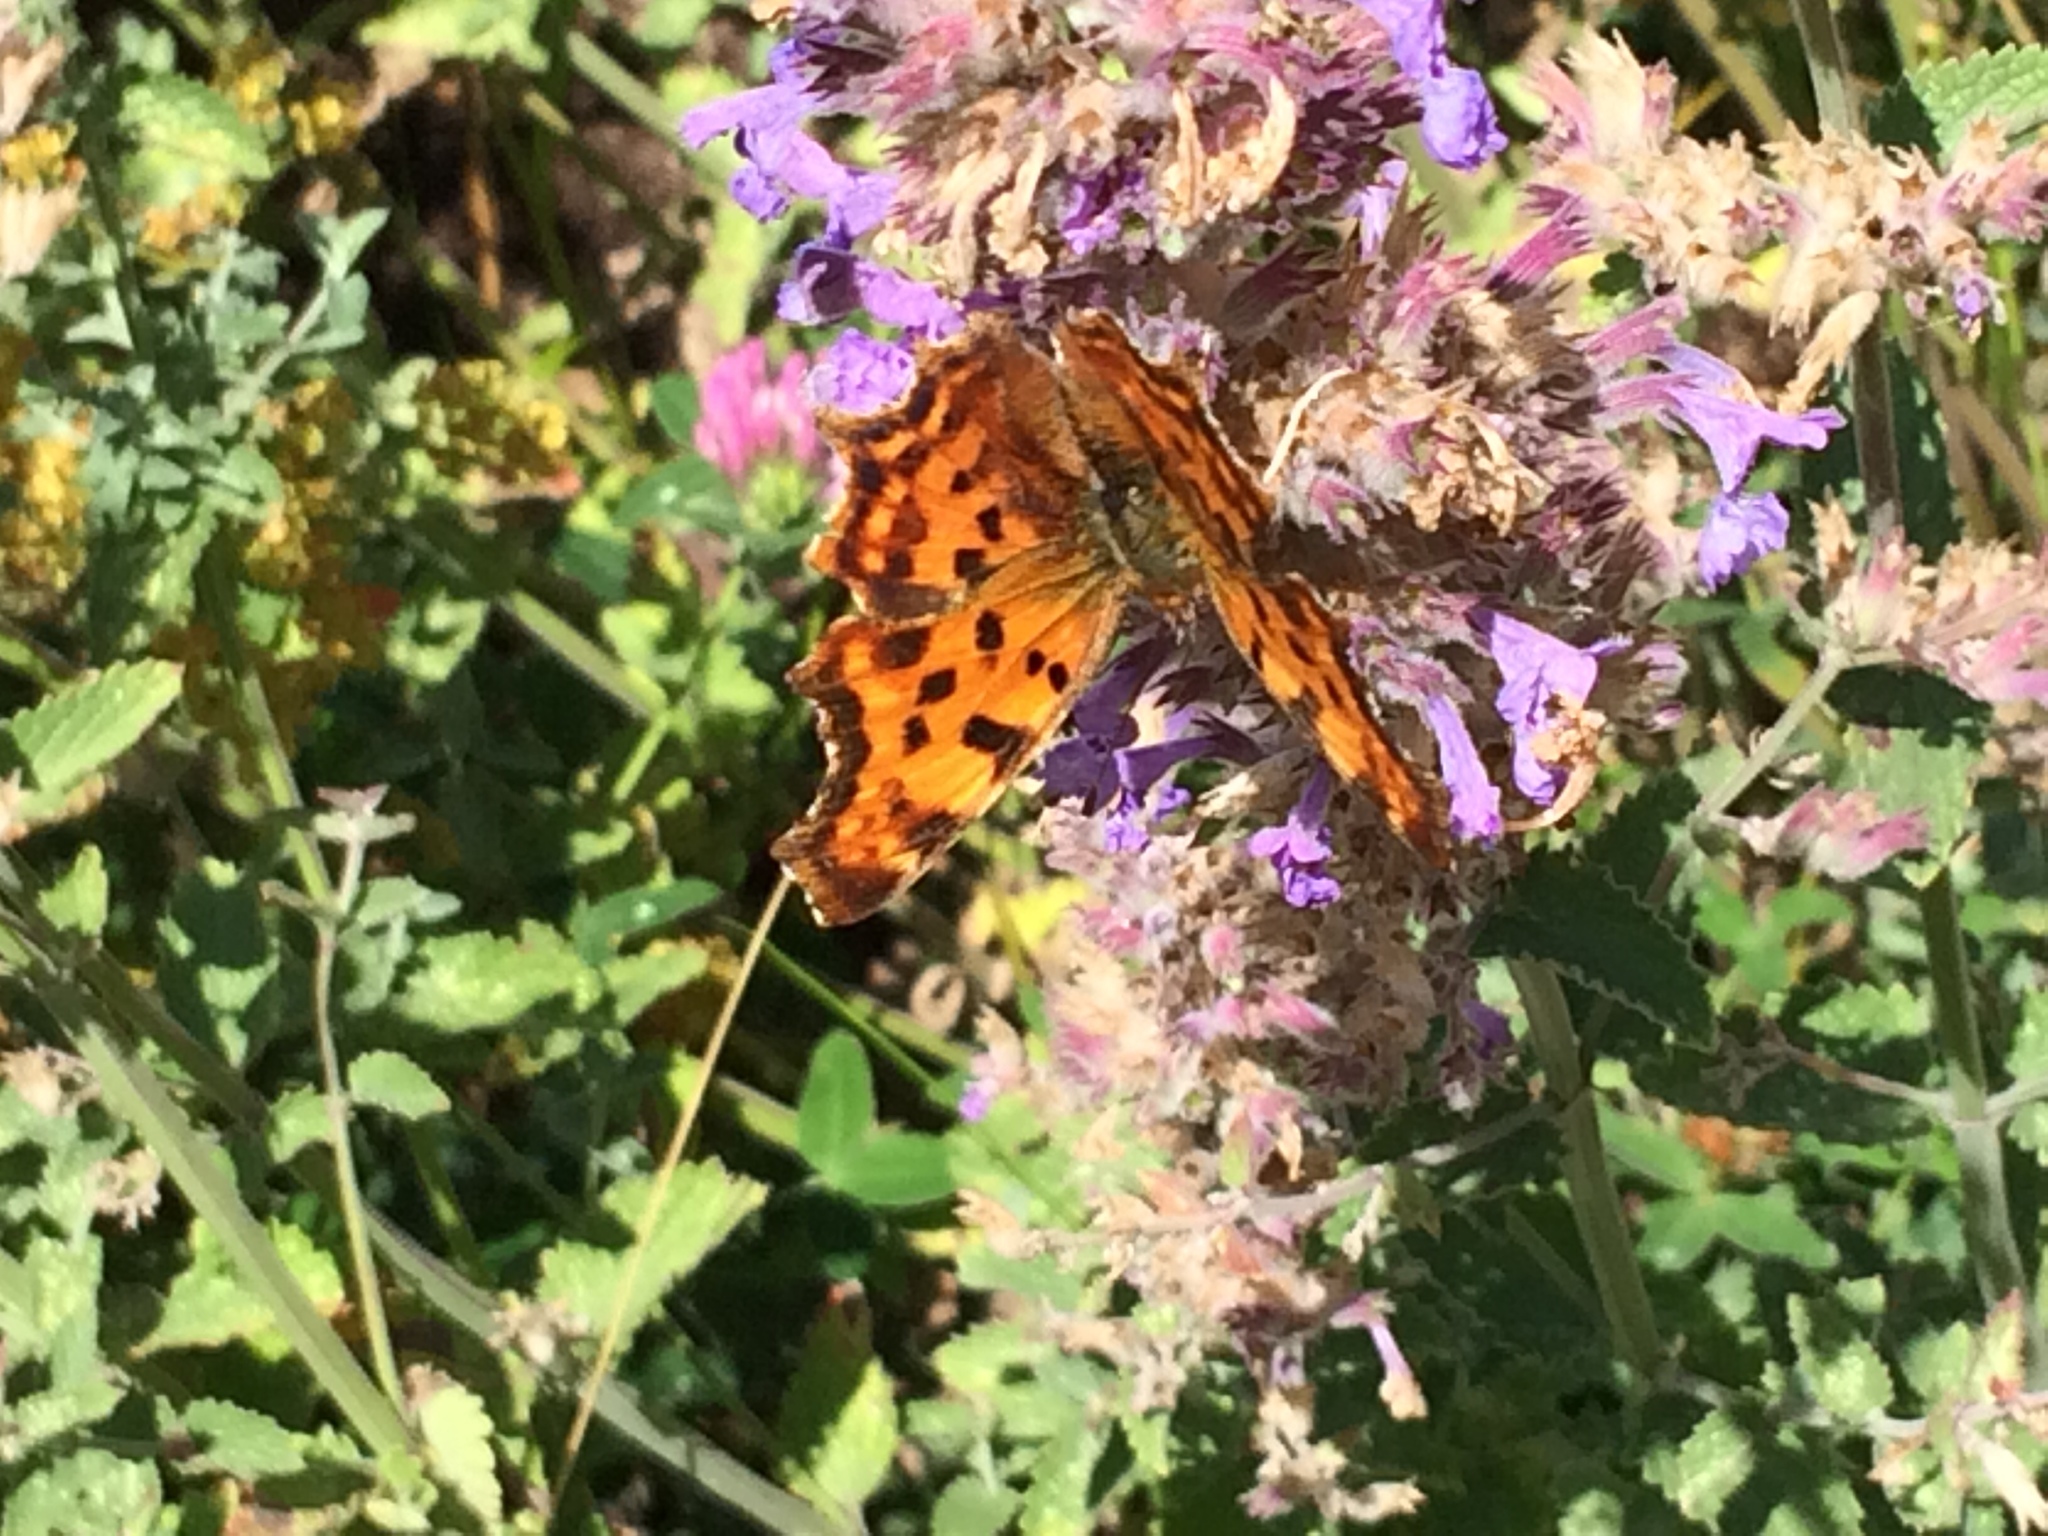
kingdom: Animalia
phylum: Arthropoda
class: Insecta
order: Lepidoptera
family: Nymphalidae
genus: Polygonia
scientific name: Polygonia c-album
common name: Comma
